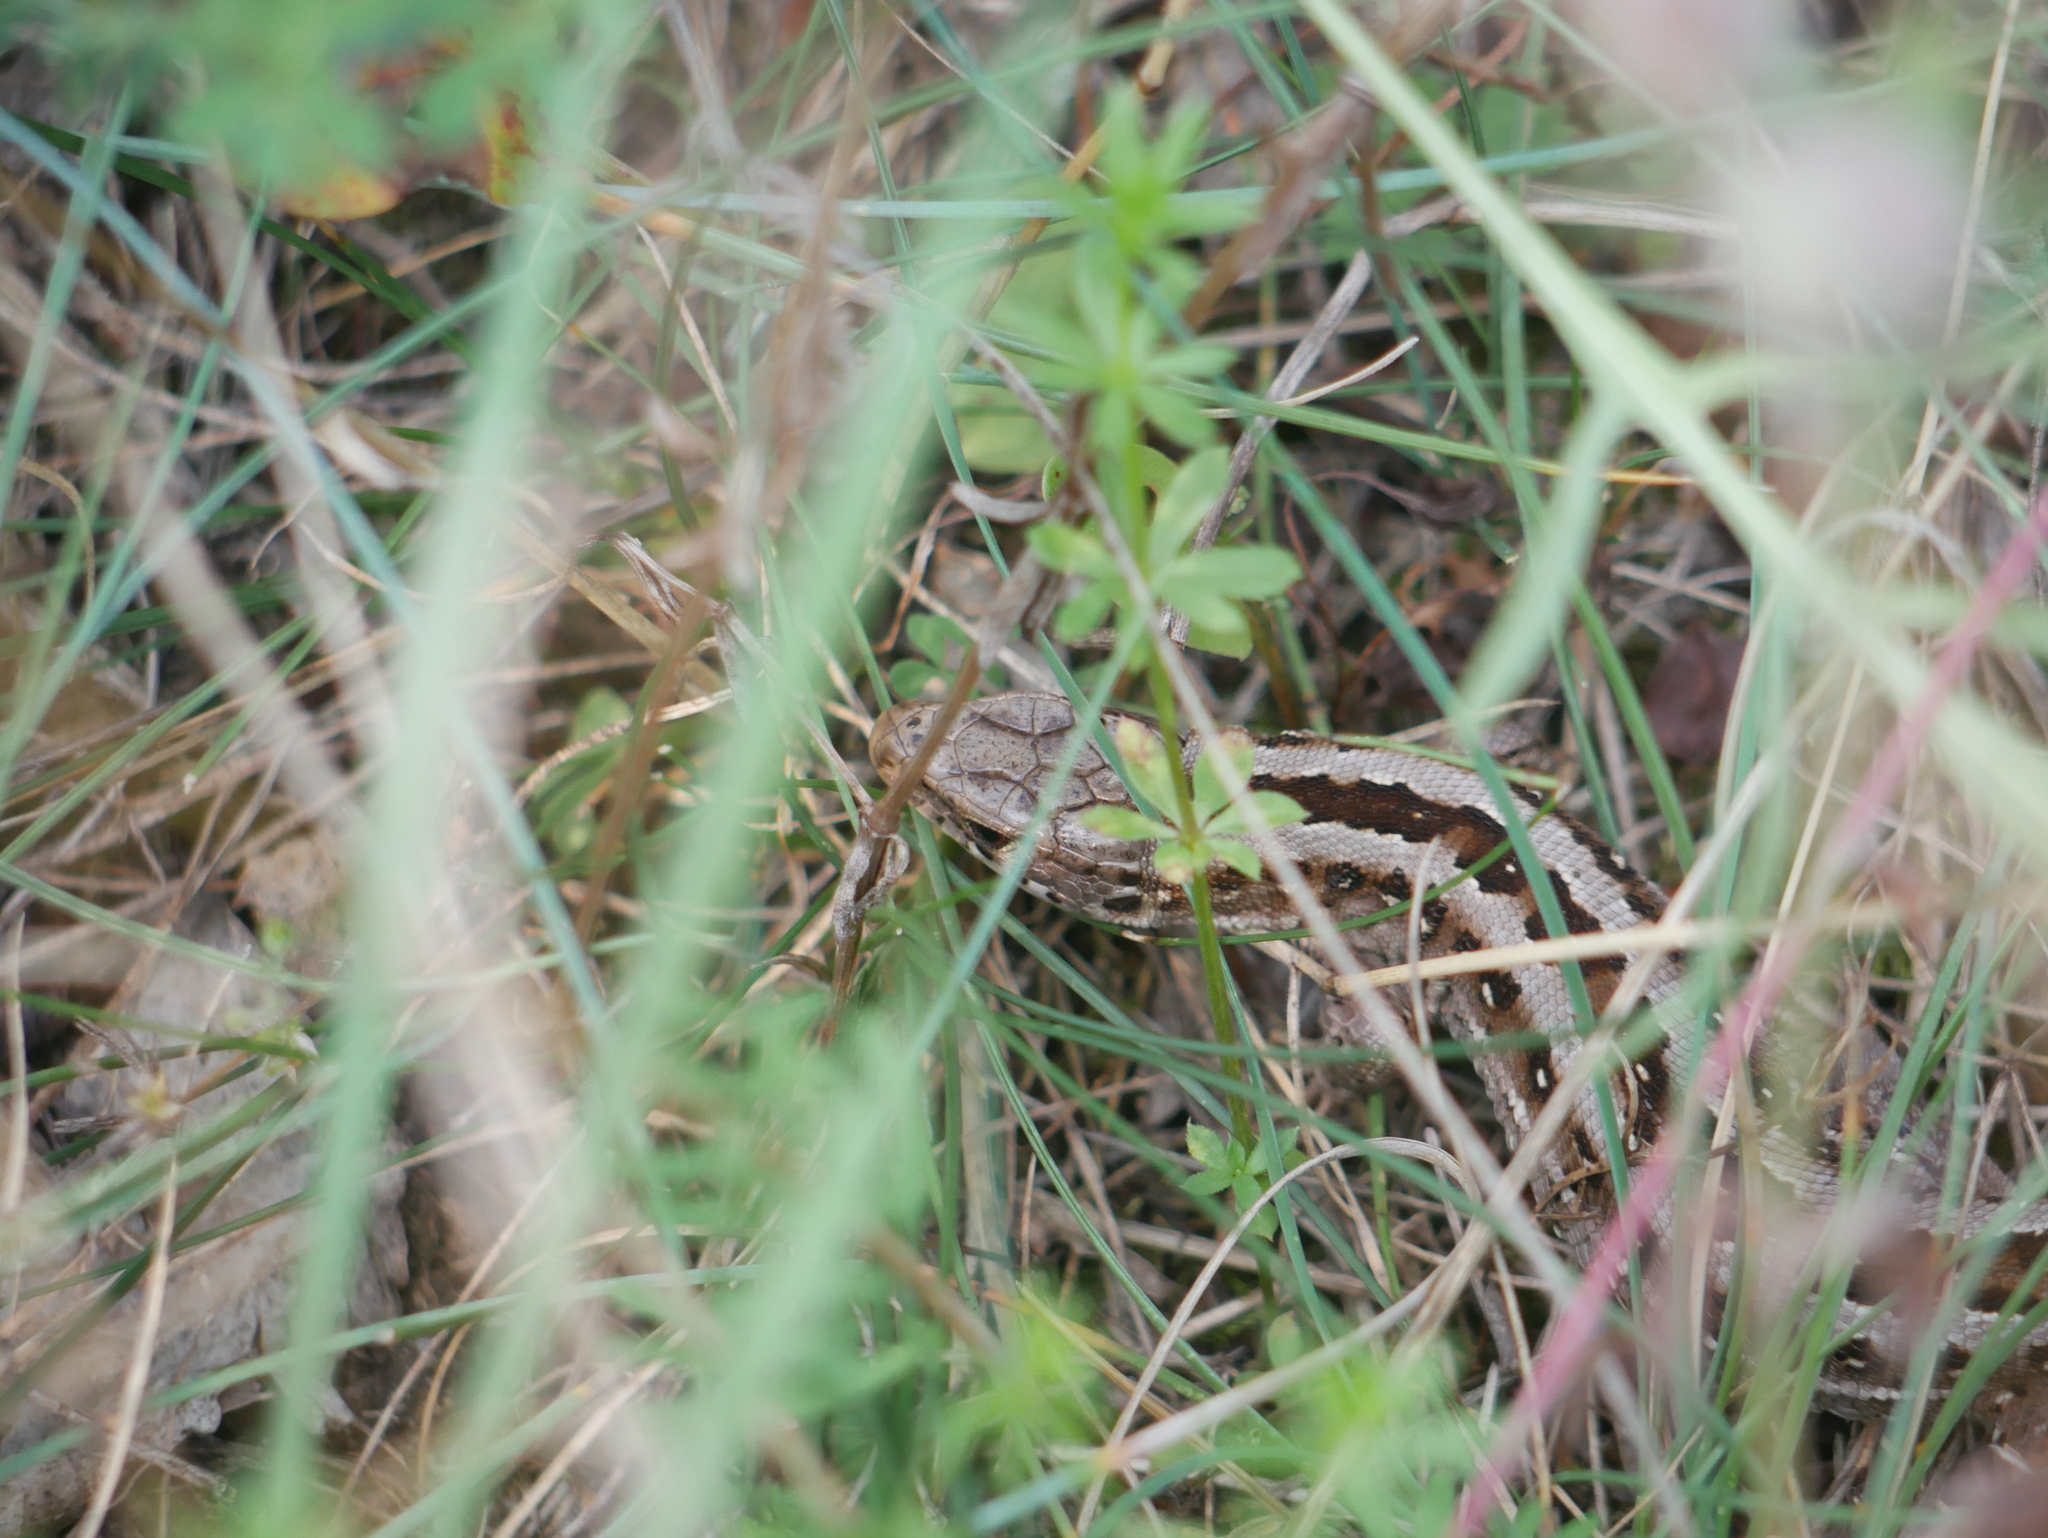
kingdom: Animalia
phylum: Chordata
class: Squamata
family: Lacertidae
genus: Lacerta
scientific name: Lacerta agilis
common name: Sand lizard
